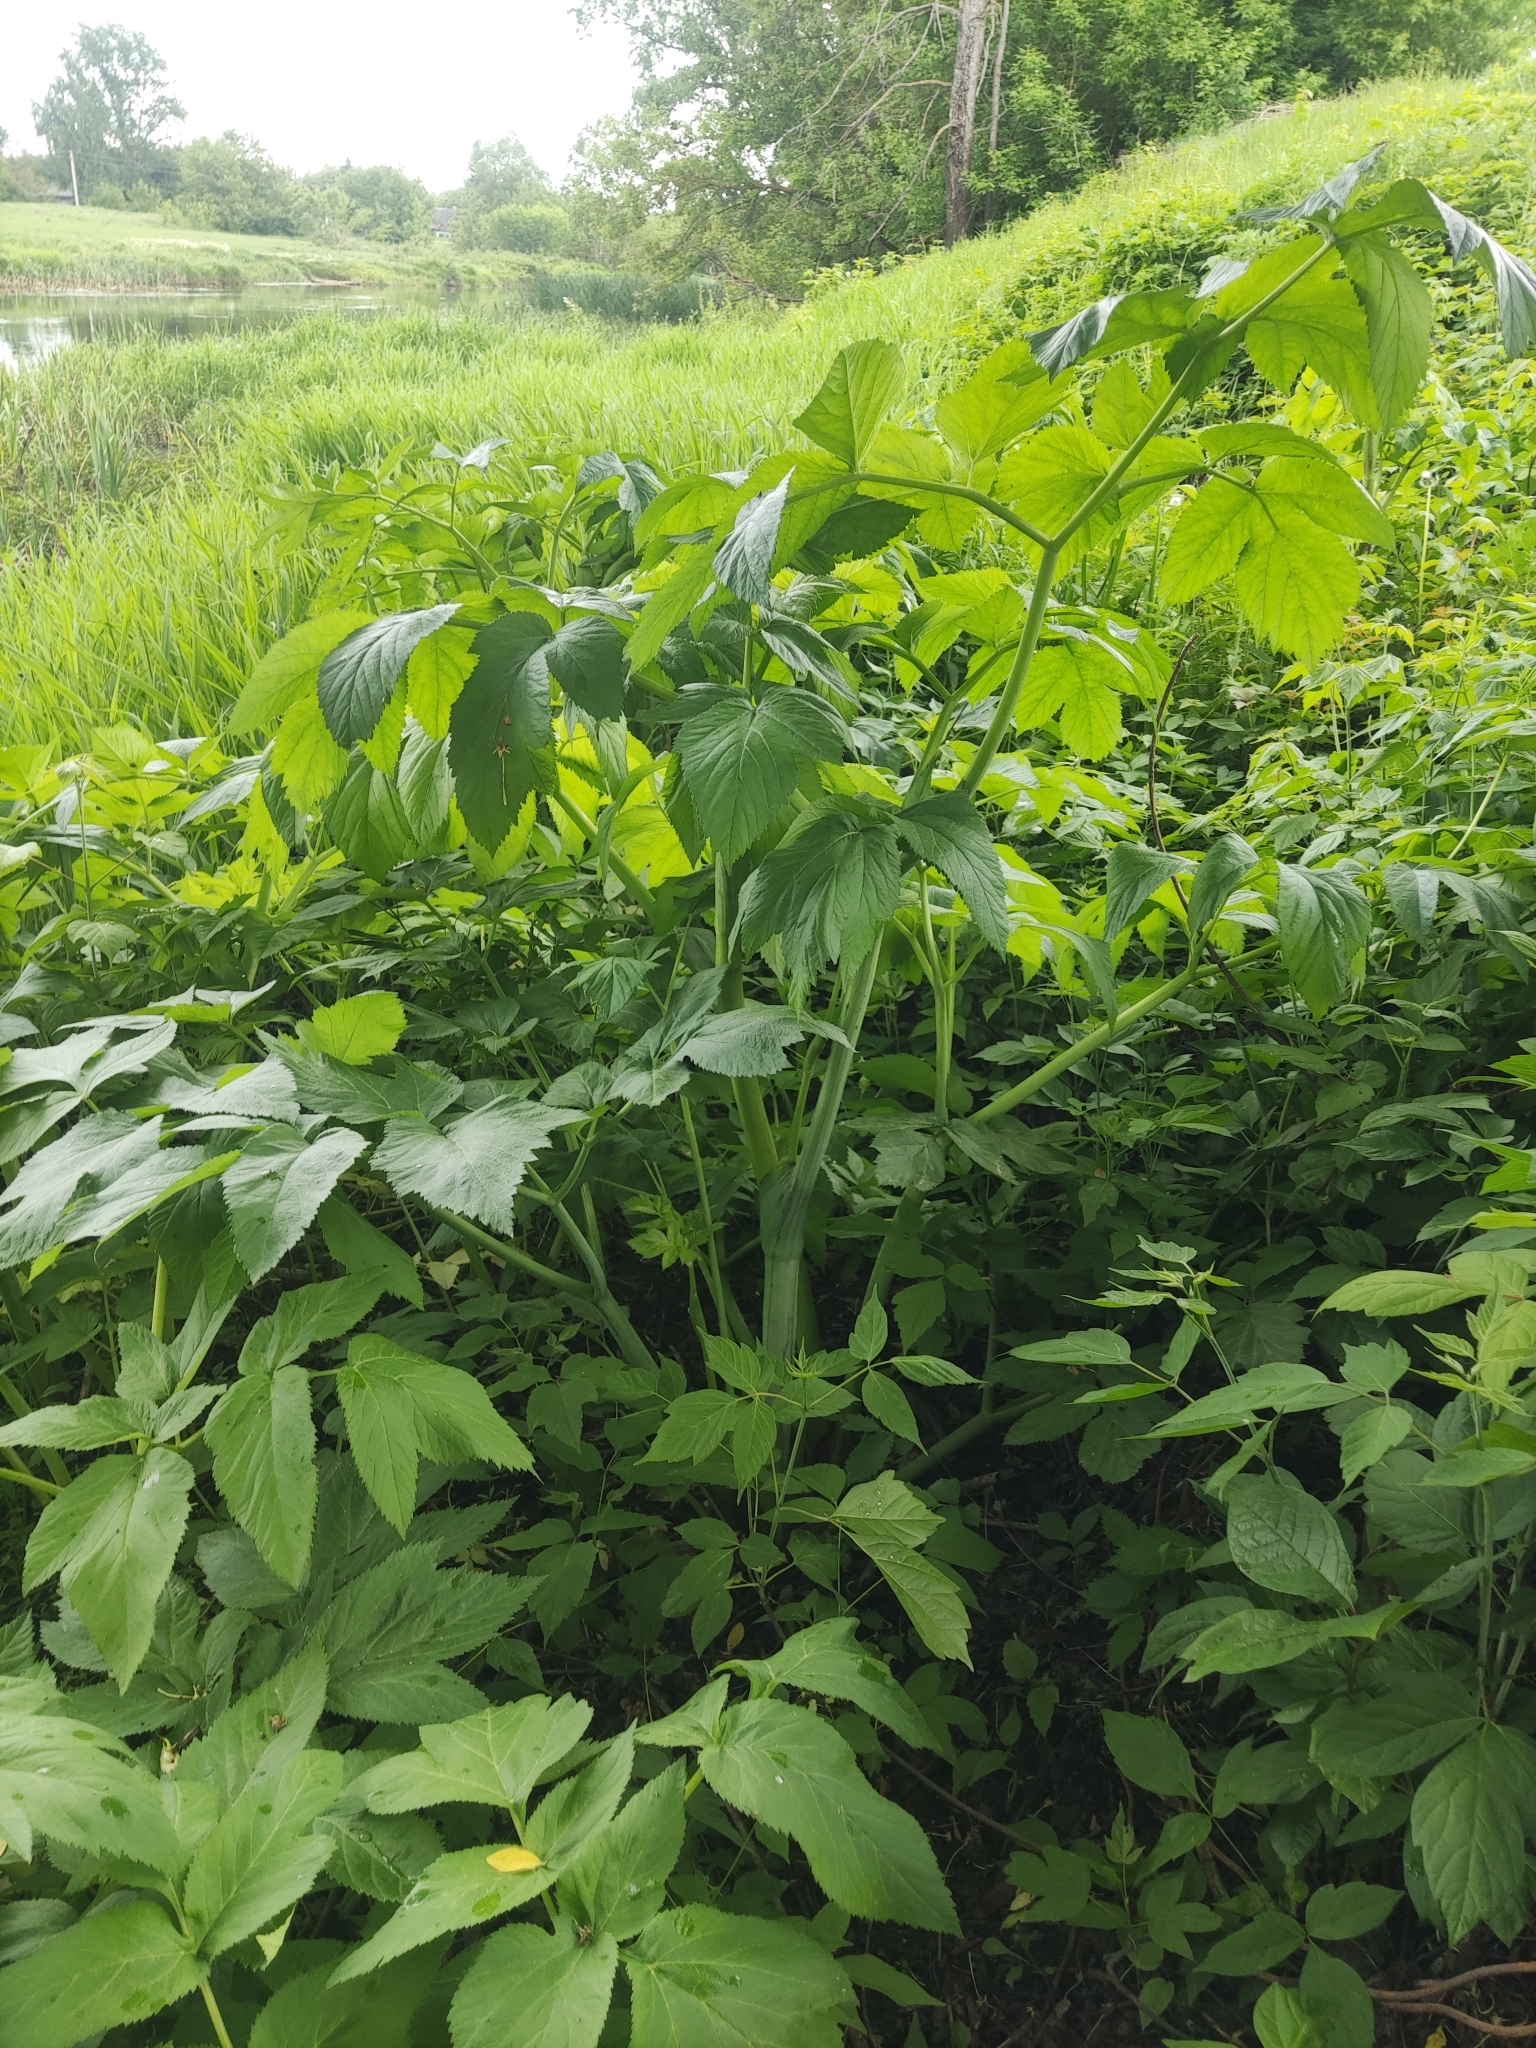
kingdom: Plantae
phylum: Tracheophyta
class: Magnoliopsida
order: Apiales
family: Apiaceae
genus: Angelica
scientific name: Angelica archangelica
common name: Garden angelica
